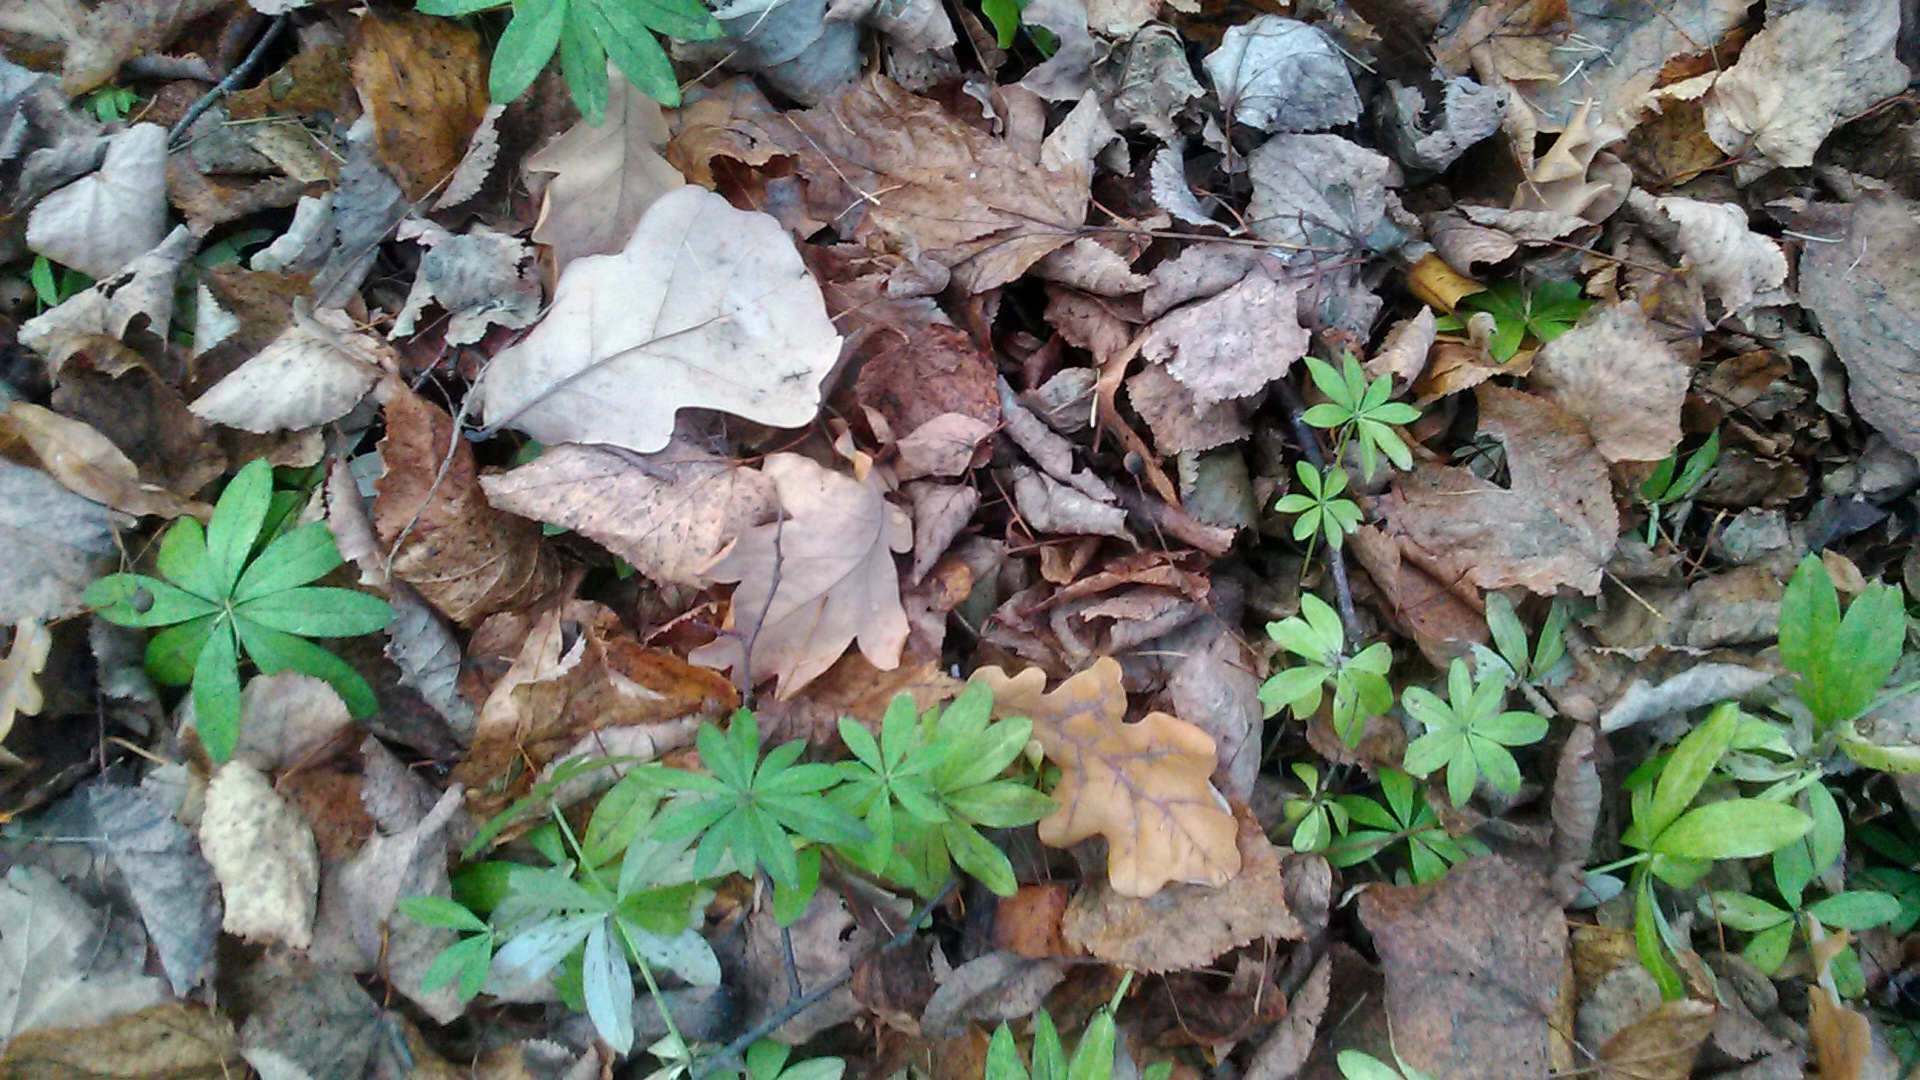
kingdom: Plantae
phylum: Tracheophyta
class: Magnoliopsida
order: Gentianales
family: Rubiaceae
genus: Galium
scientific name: Galium odoratum
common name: Sweet woodruff
